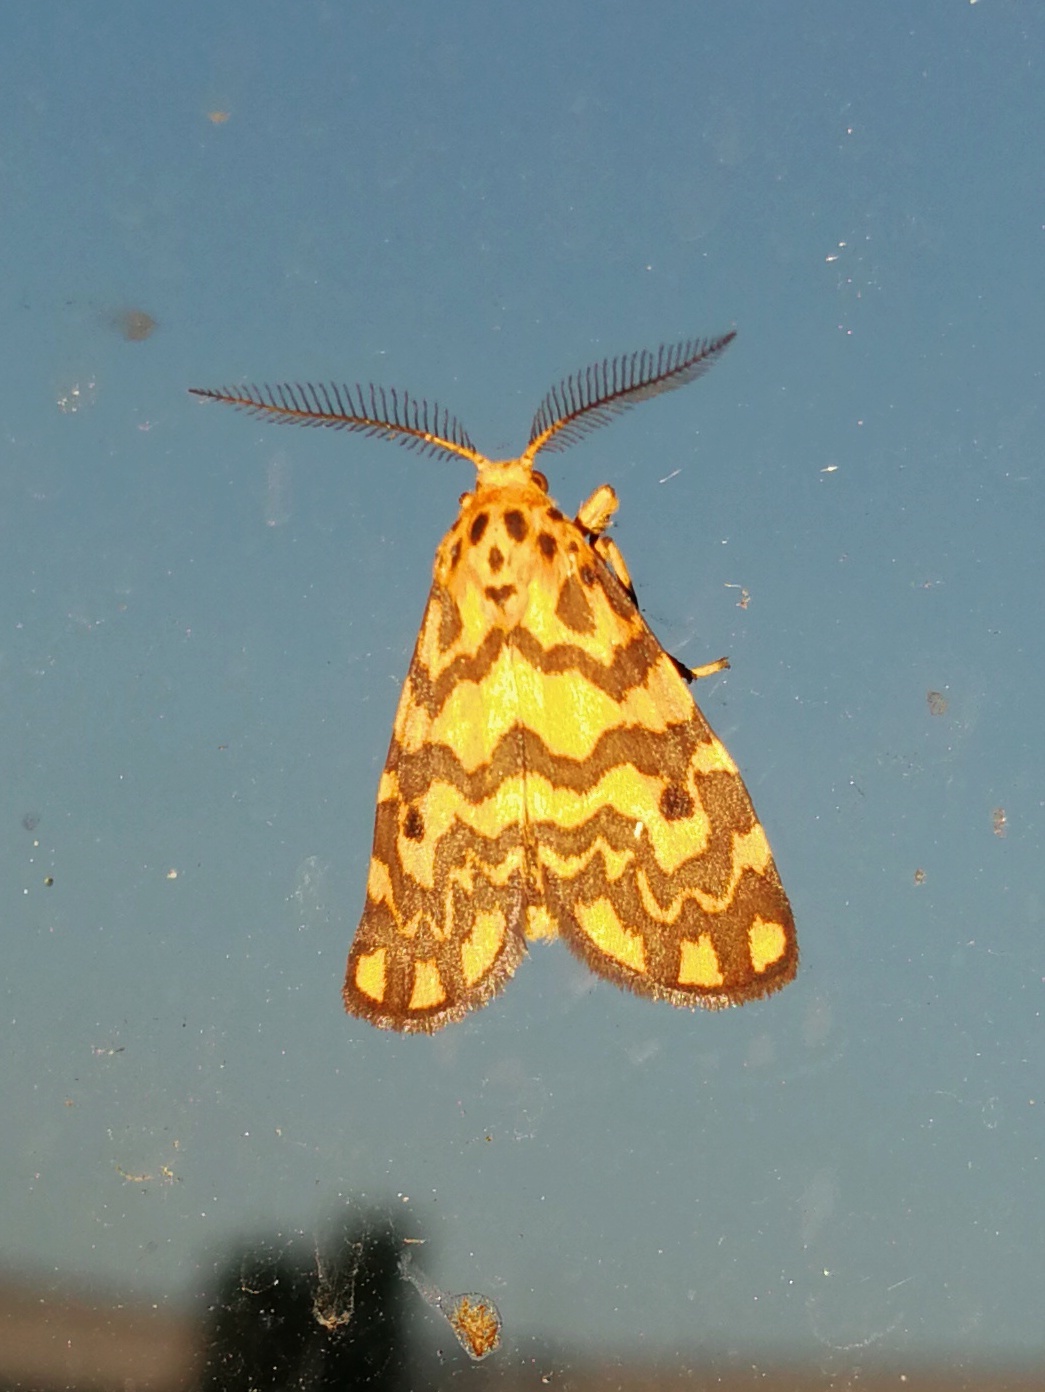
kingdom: Animalia
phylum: Arthropoda
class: Insecta
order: Lepidoptera
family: Erebidae
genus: Nepita
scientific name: Nepita conferta
